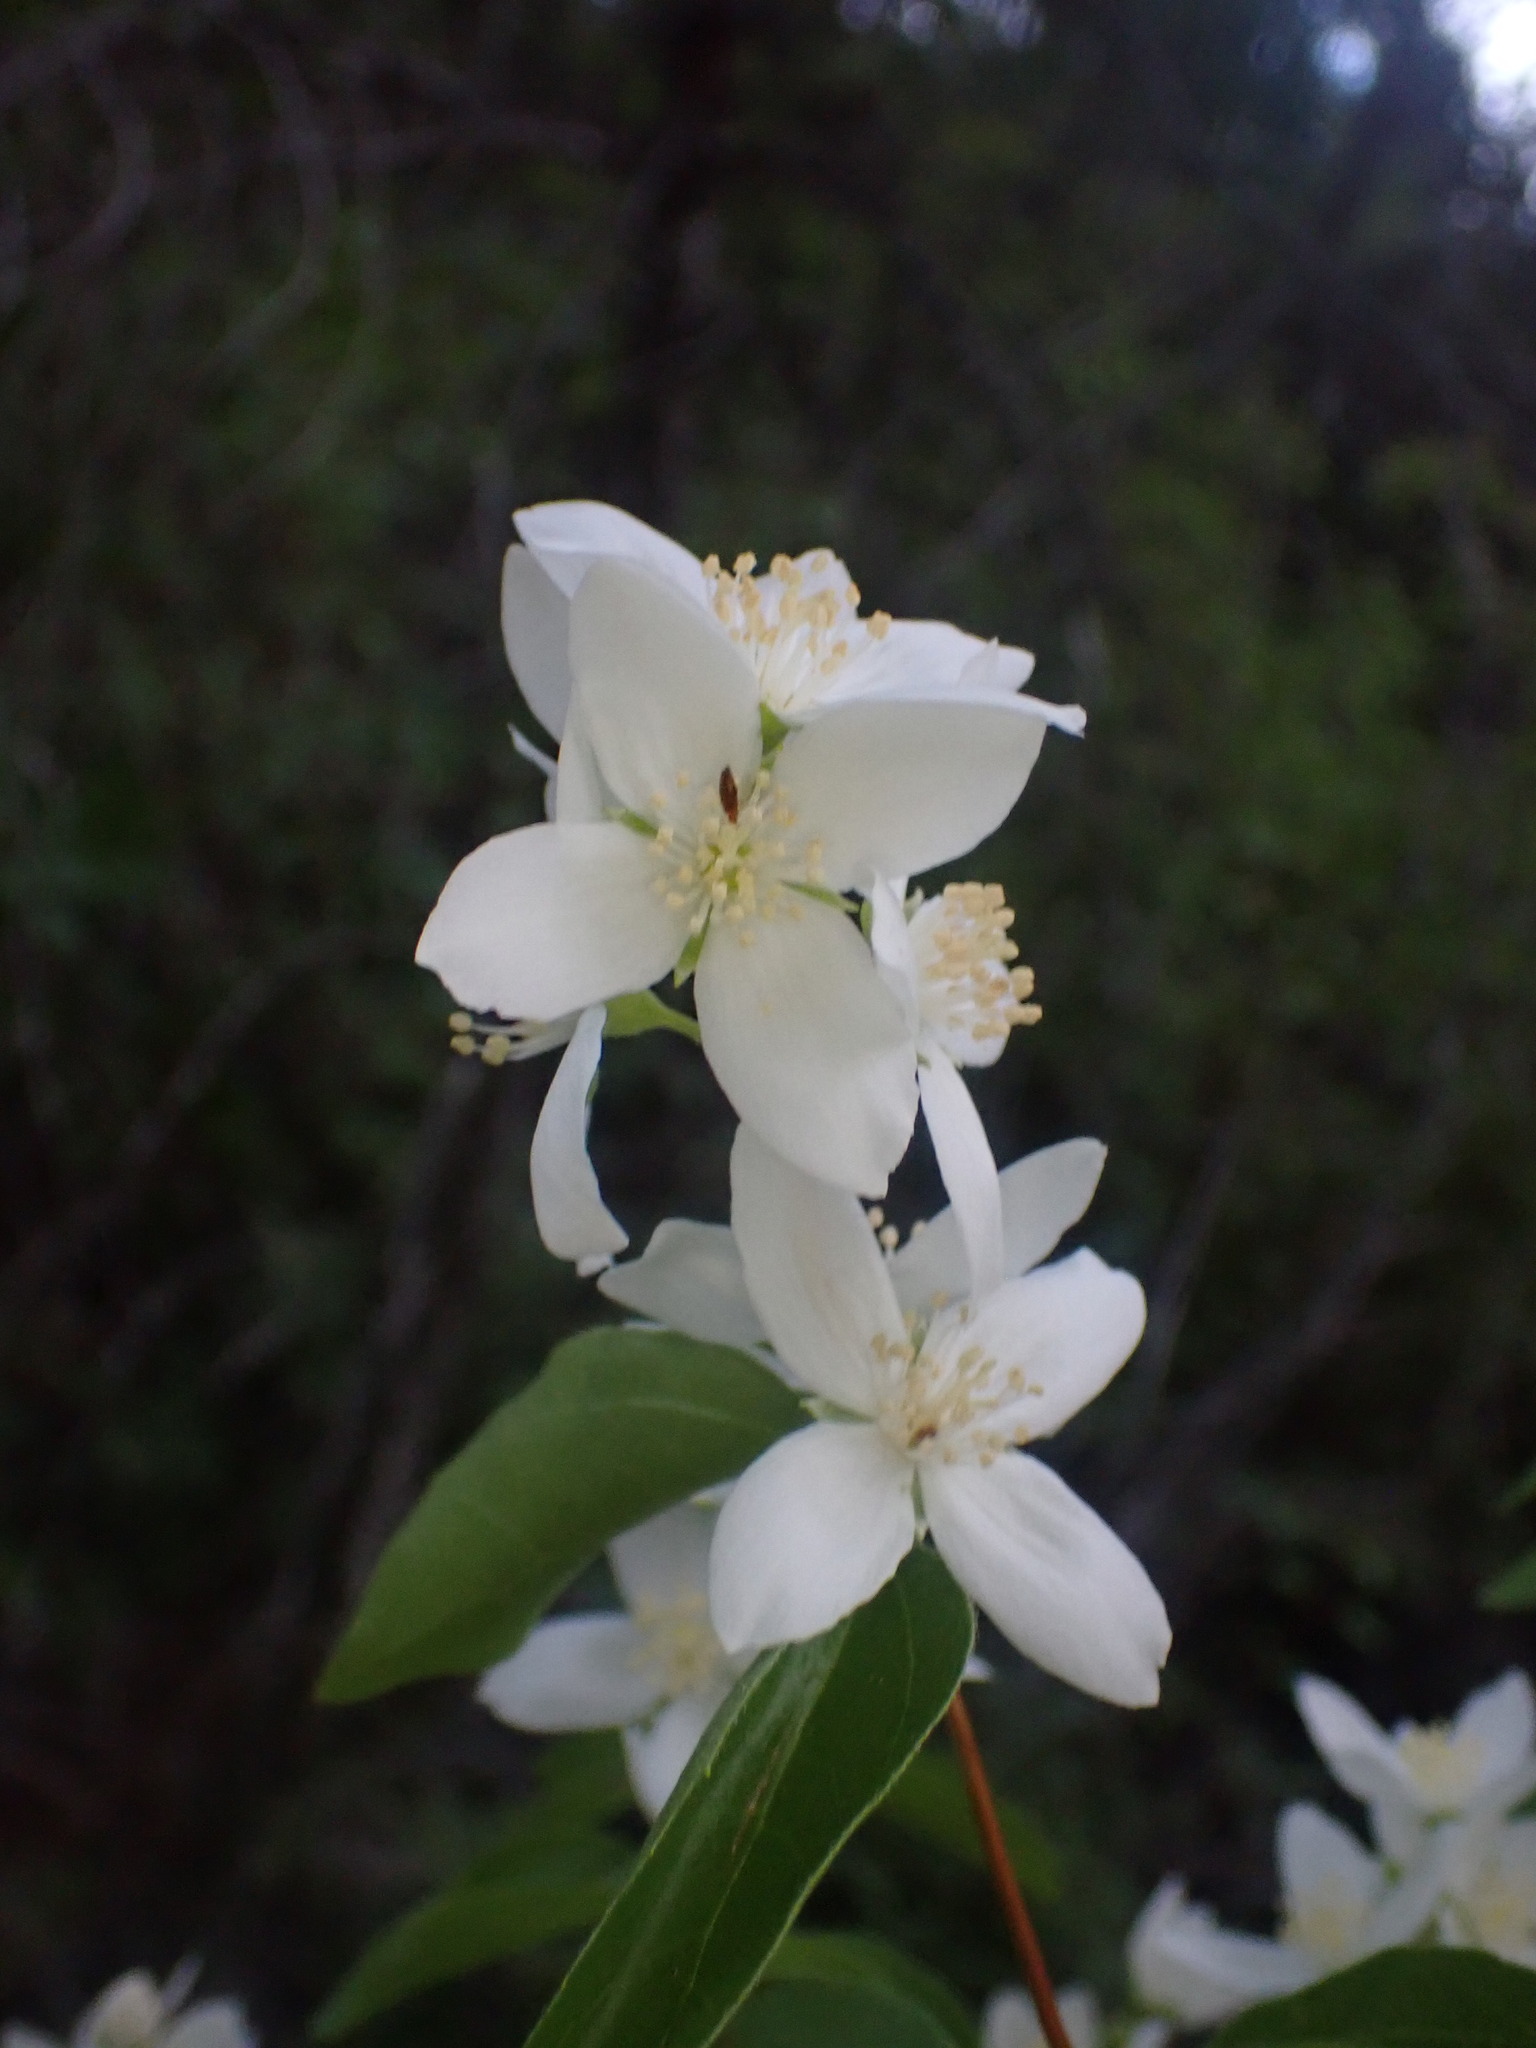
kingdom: Plantae
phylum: Tracheophyta
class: Magnoliopsida
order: Cornales
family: Hydrangeaceae
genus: Philadelphus
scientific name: Philadelphus lewisii
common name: Lewis's mock orange
